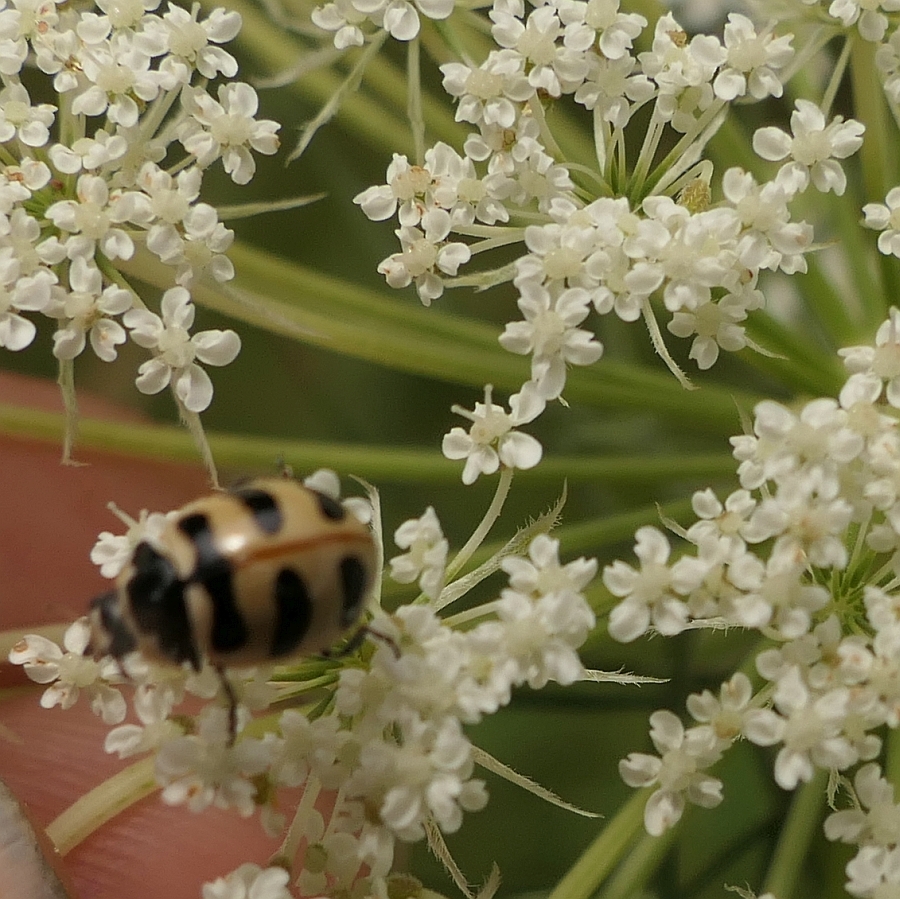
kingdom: Animalia
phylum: Arthropoda
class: Insecta
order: Coleoptera
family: Coccinellidae
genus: Coccinella
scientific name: Coccinella trifasciata
